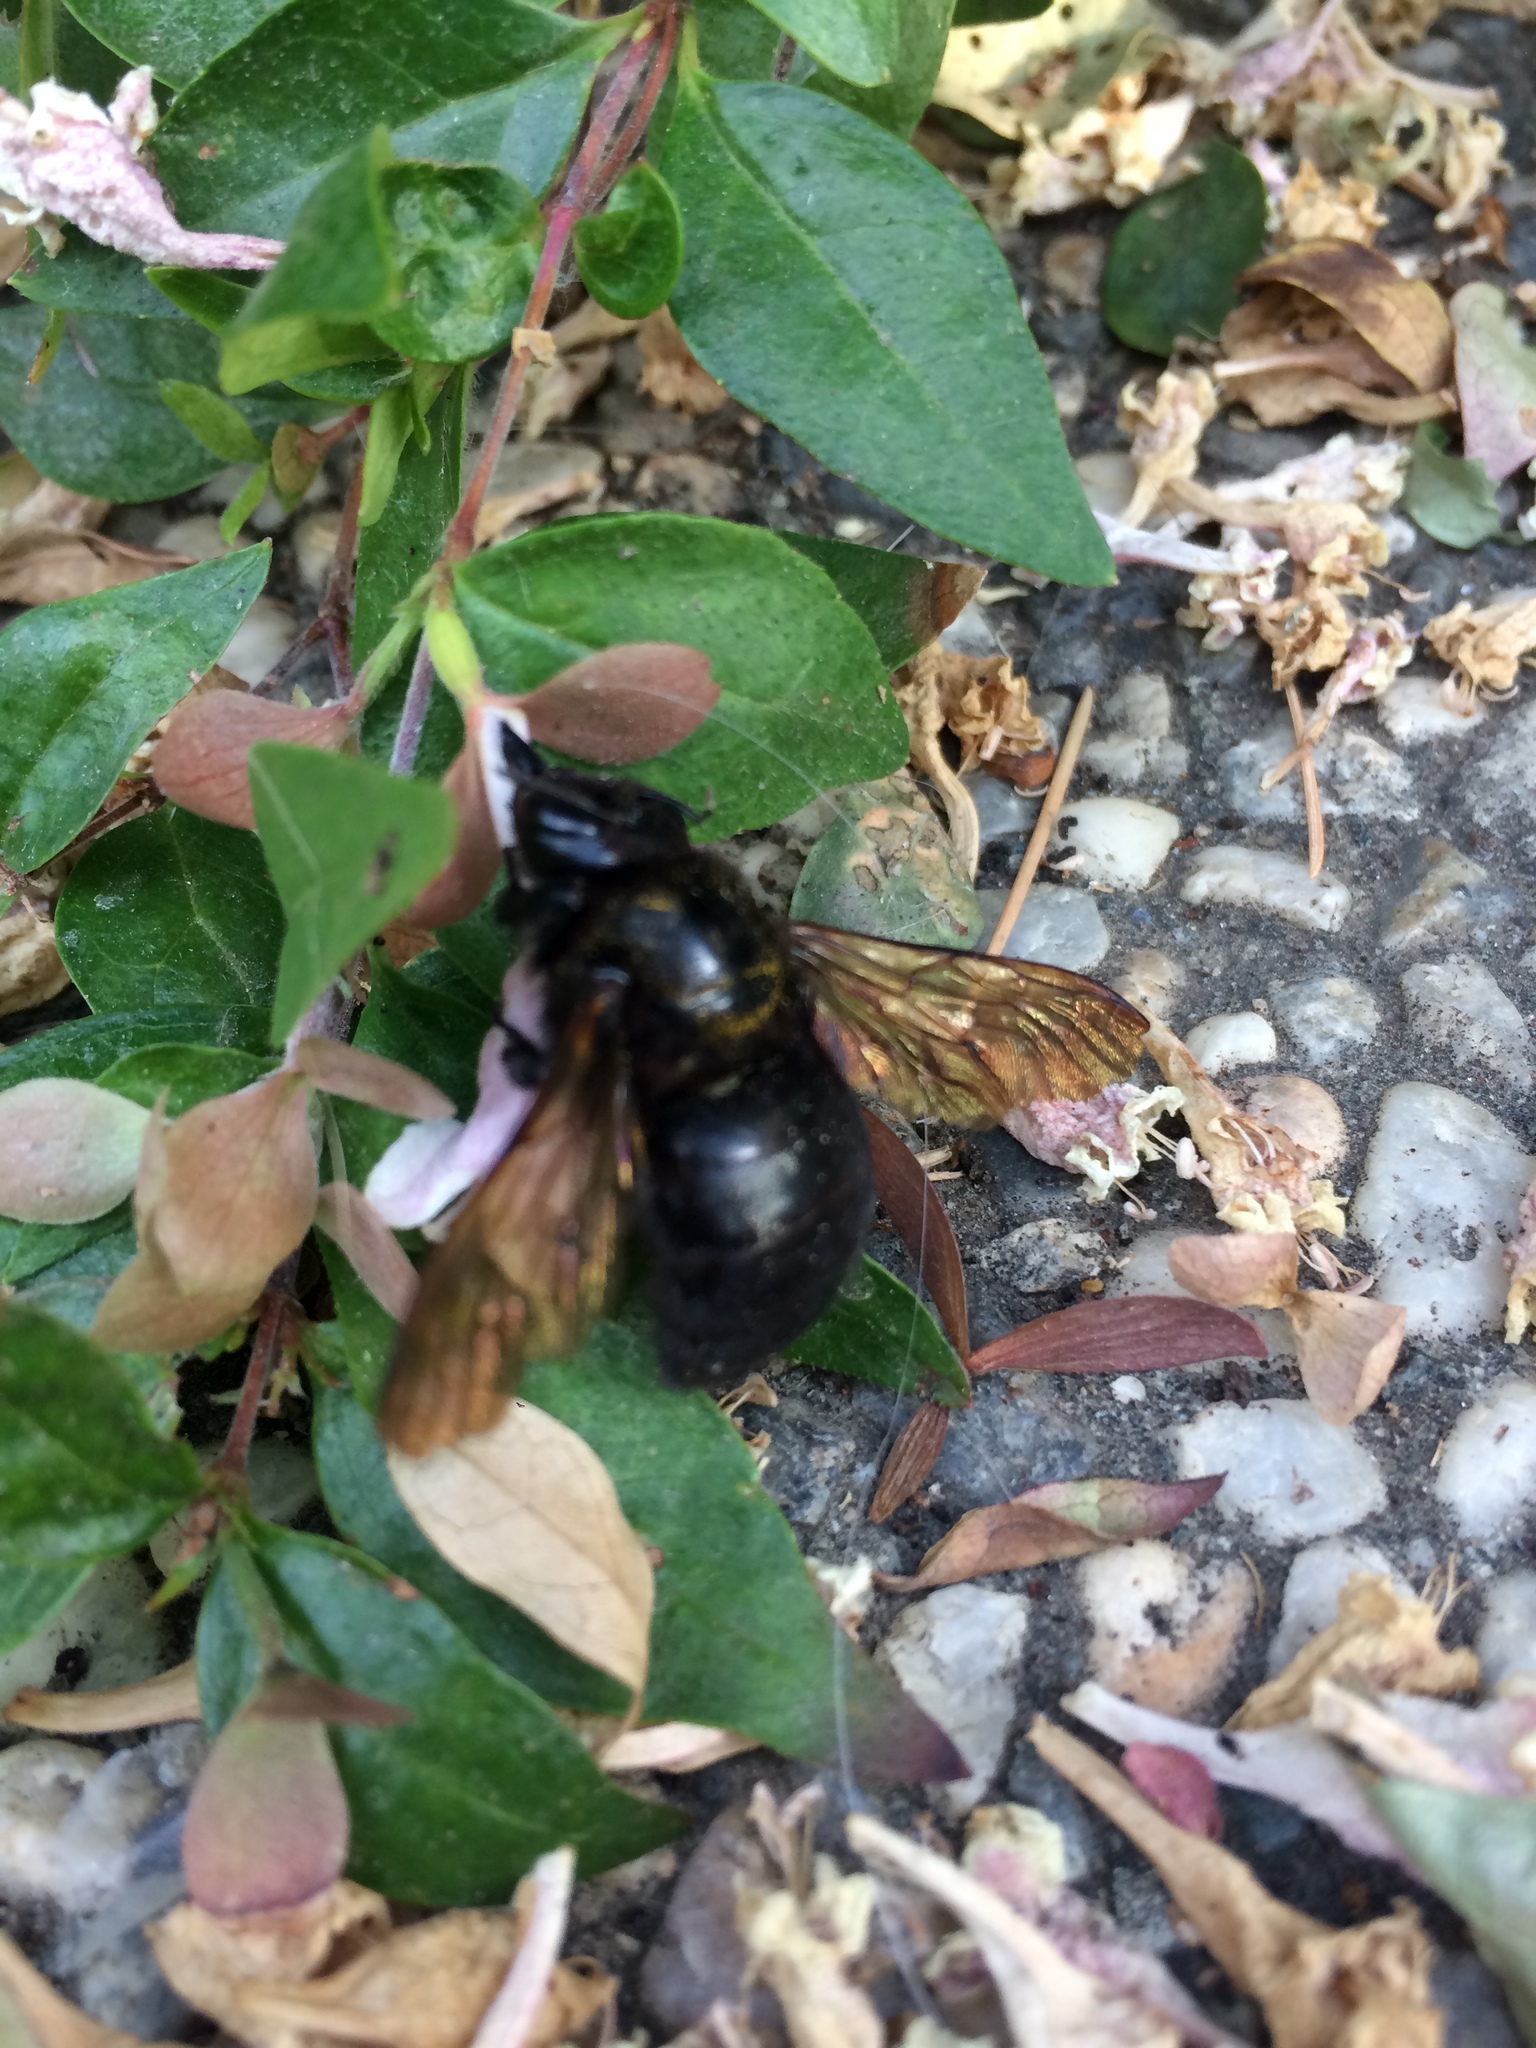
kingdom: Animalia
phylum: Arthropoda
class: Insecta
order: Hymenoptera
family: Apidae
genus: Xylocopa
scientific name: Xylocopa sonorina
